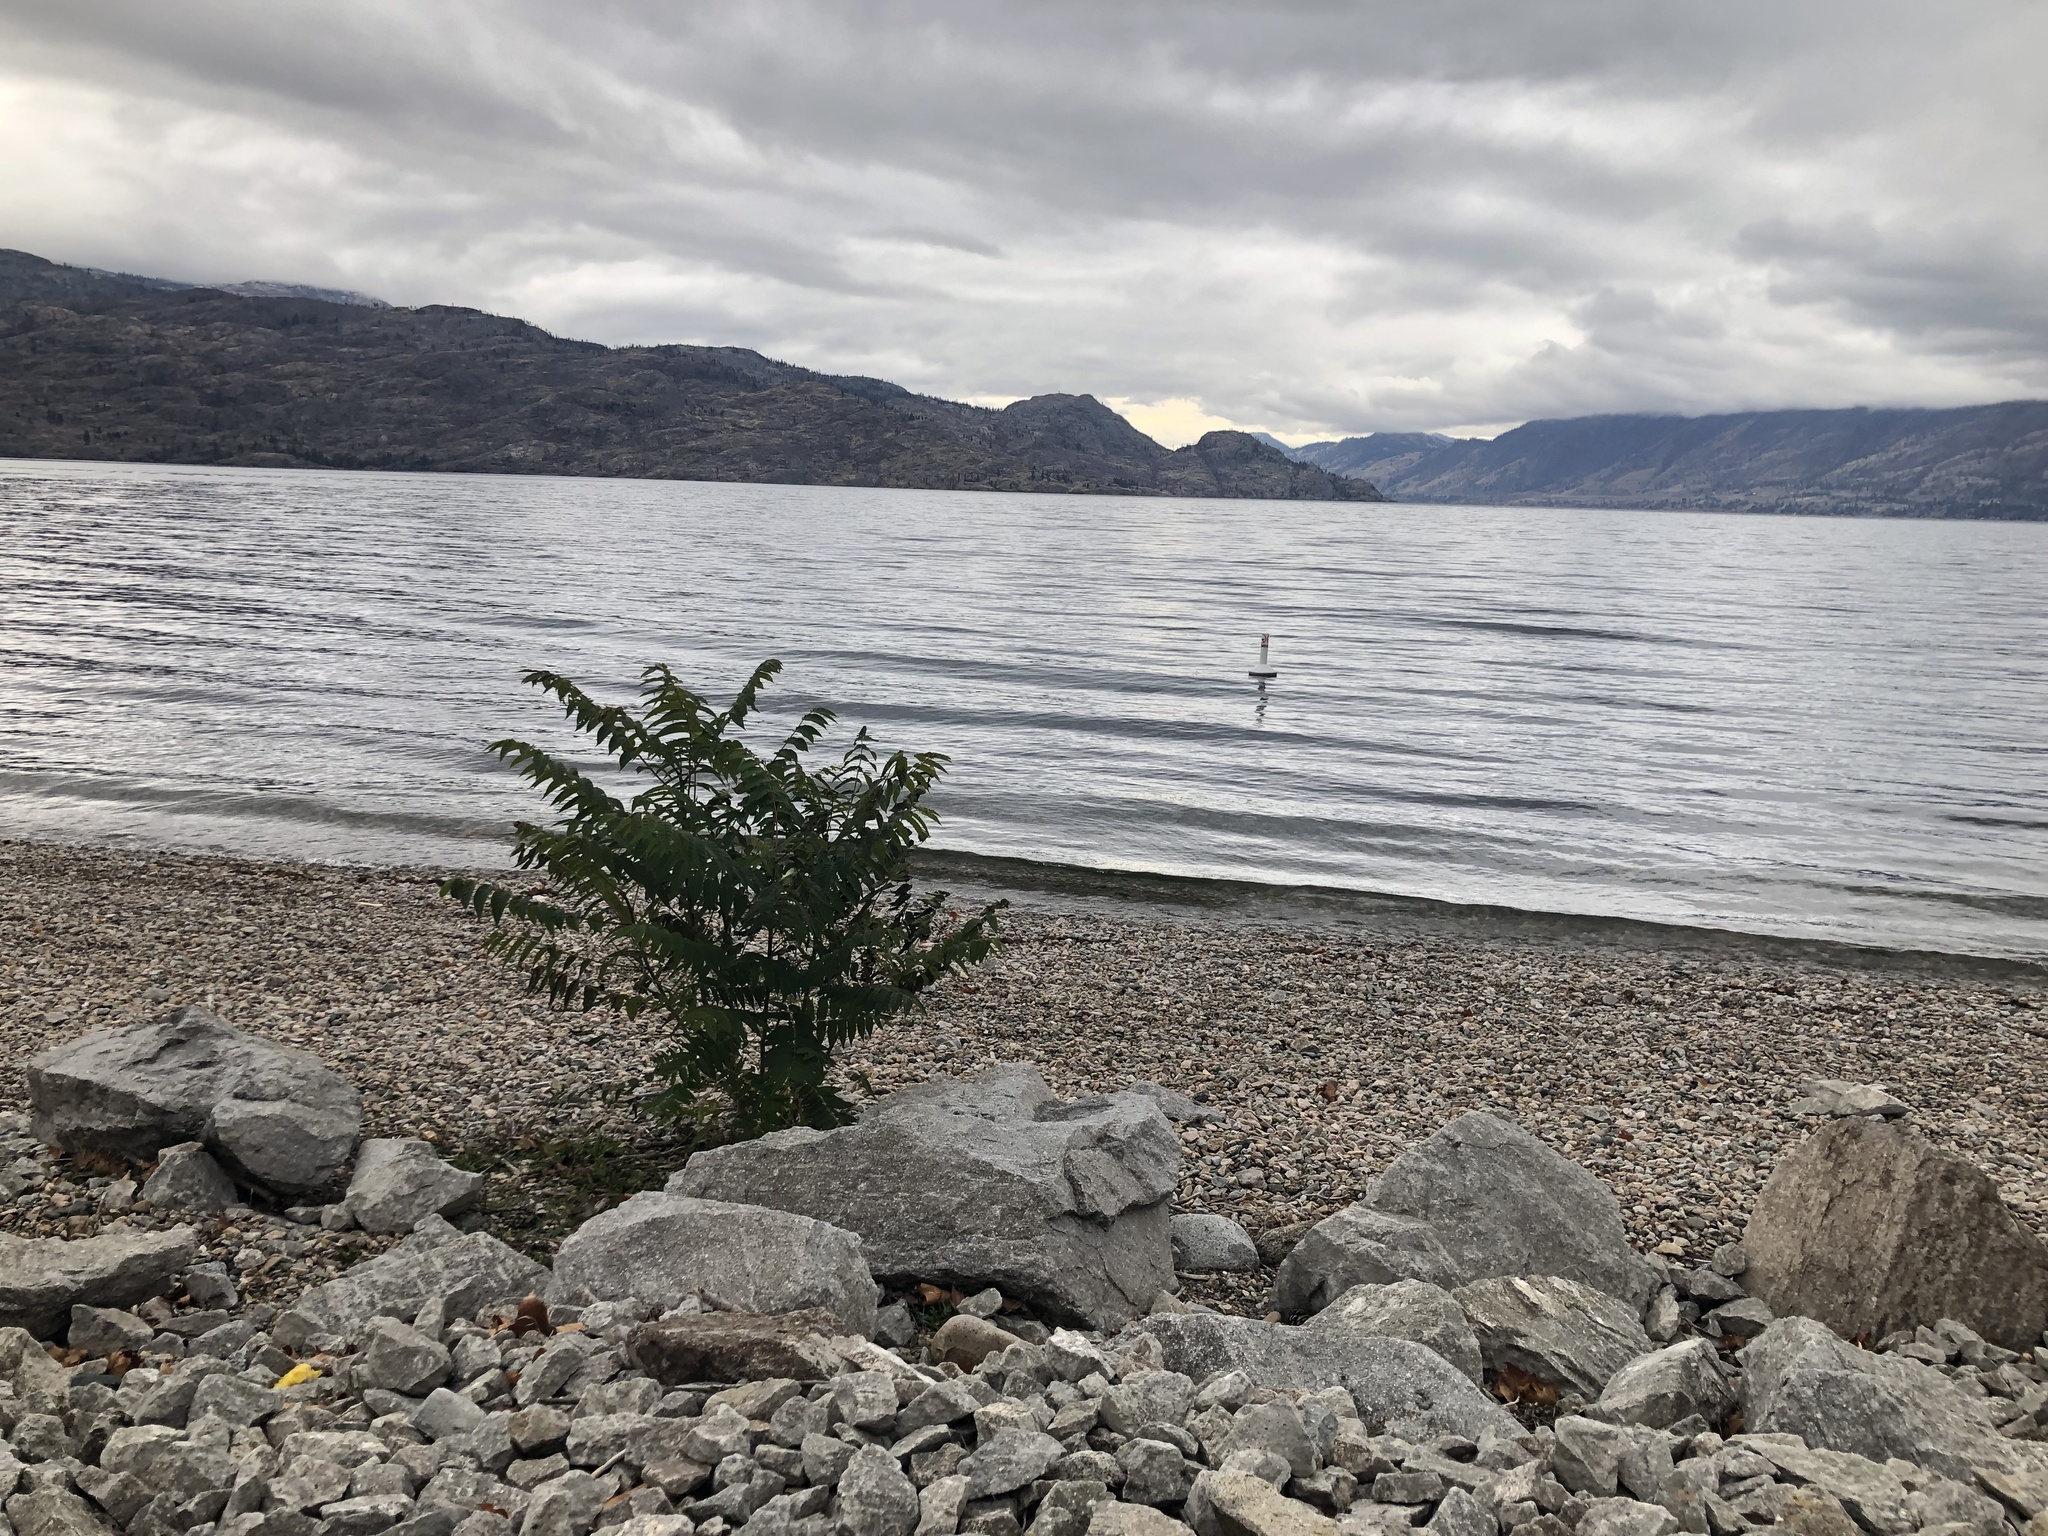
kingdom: Plantae
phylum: Tracheophyta
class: Magnoliopsida
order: Sapindales
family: Simaroubaceae
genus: Ailanthus
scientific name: Ailanthus altissima
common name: Tree-of-heaven
